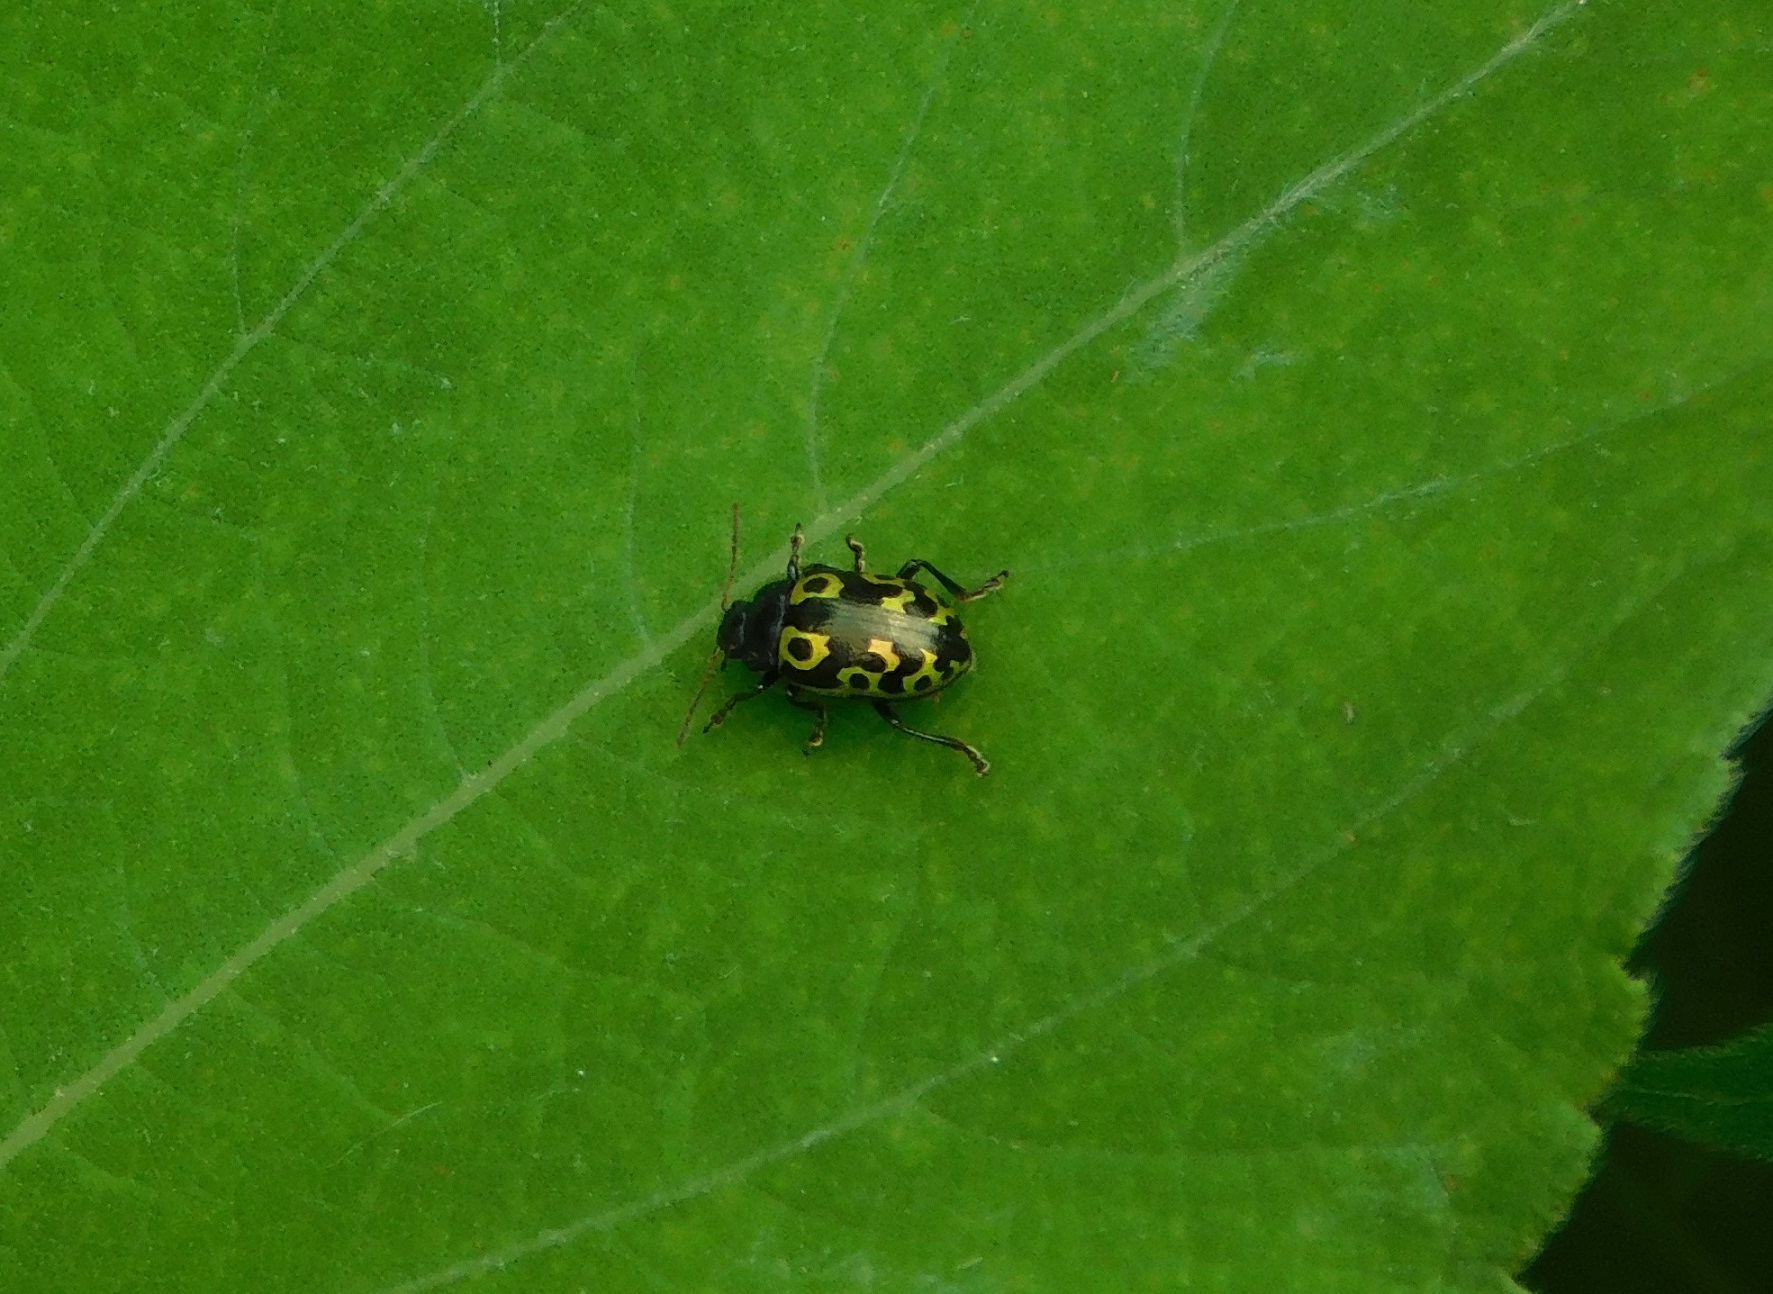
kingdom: Animalia
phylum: Arthropoda
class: Insecta
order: Coleoptera
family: Chrysomelidae
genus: Calligrapha
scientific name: Calligrapha
